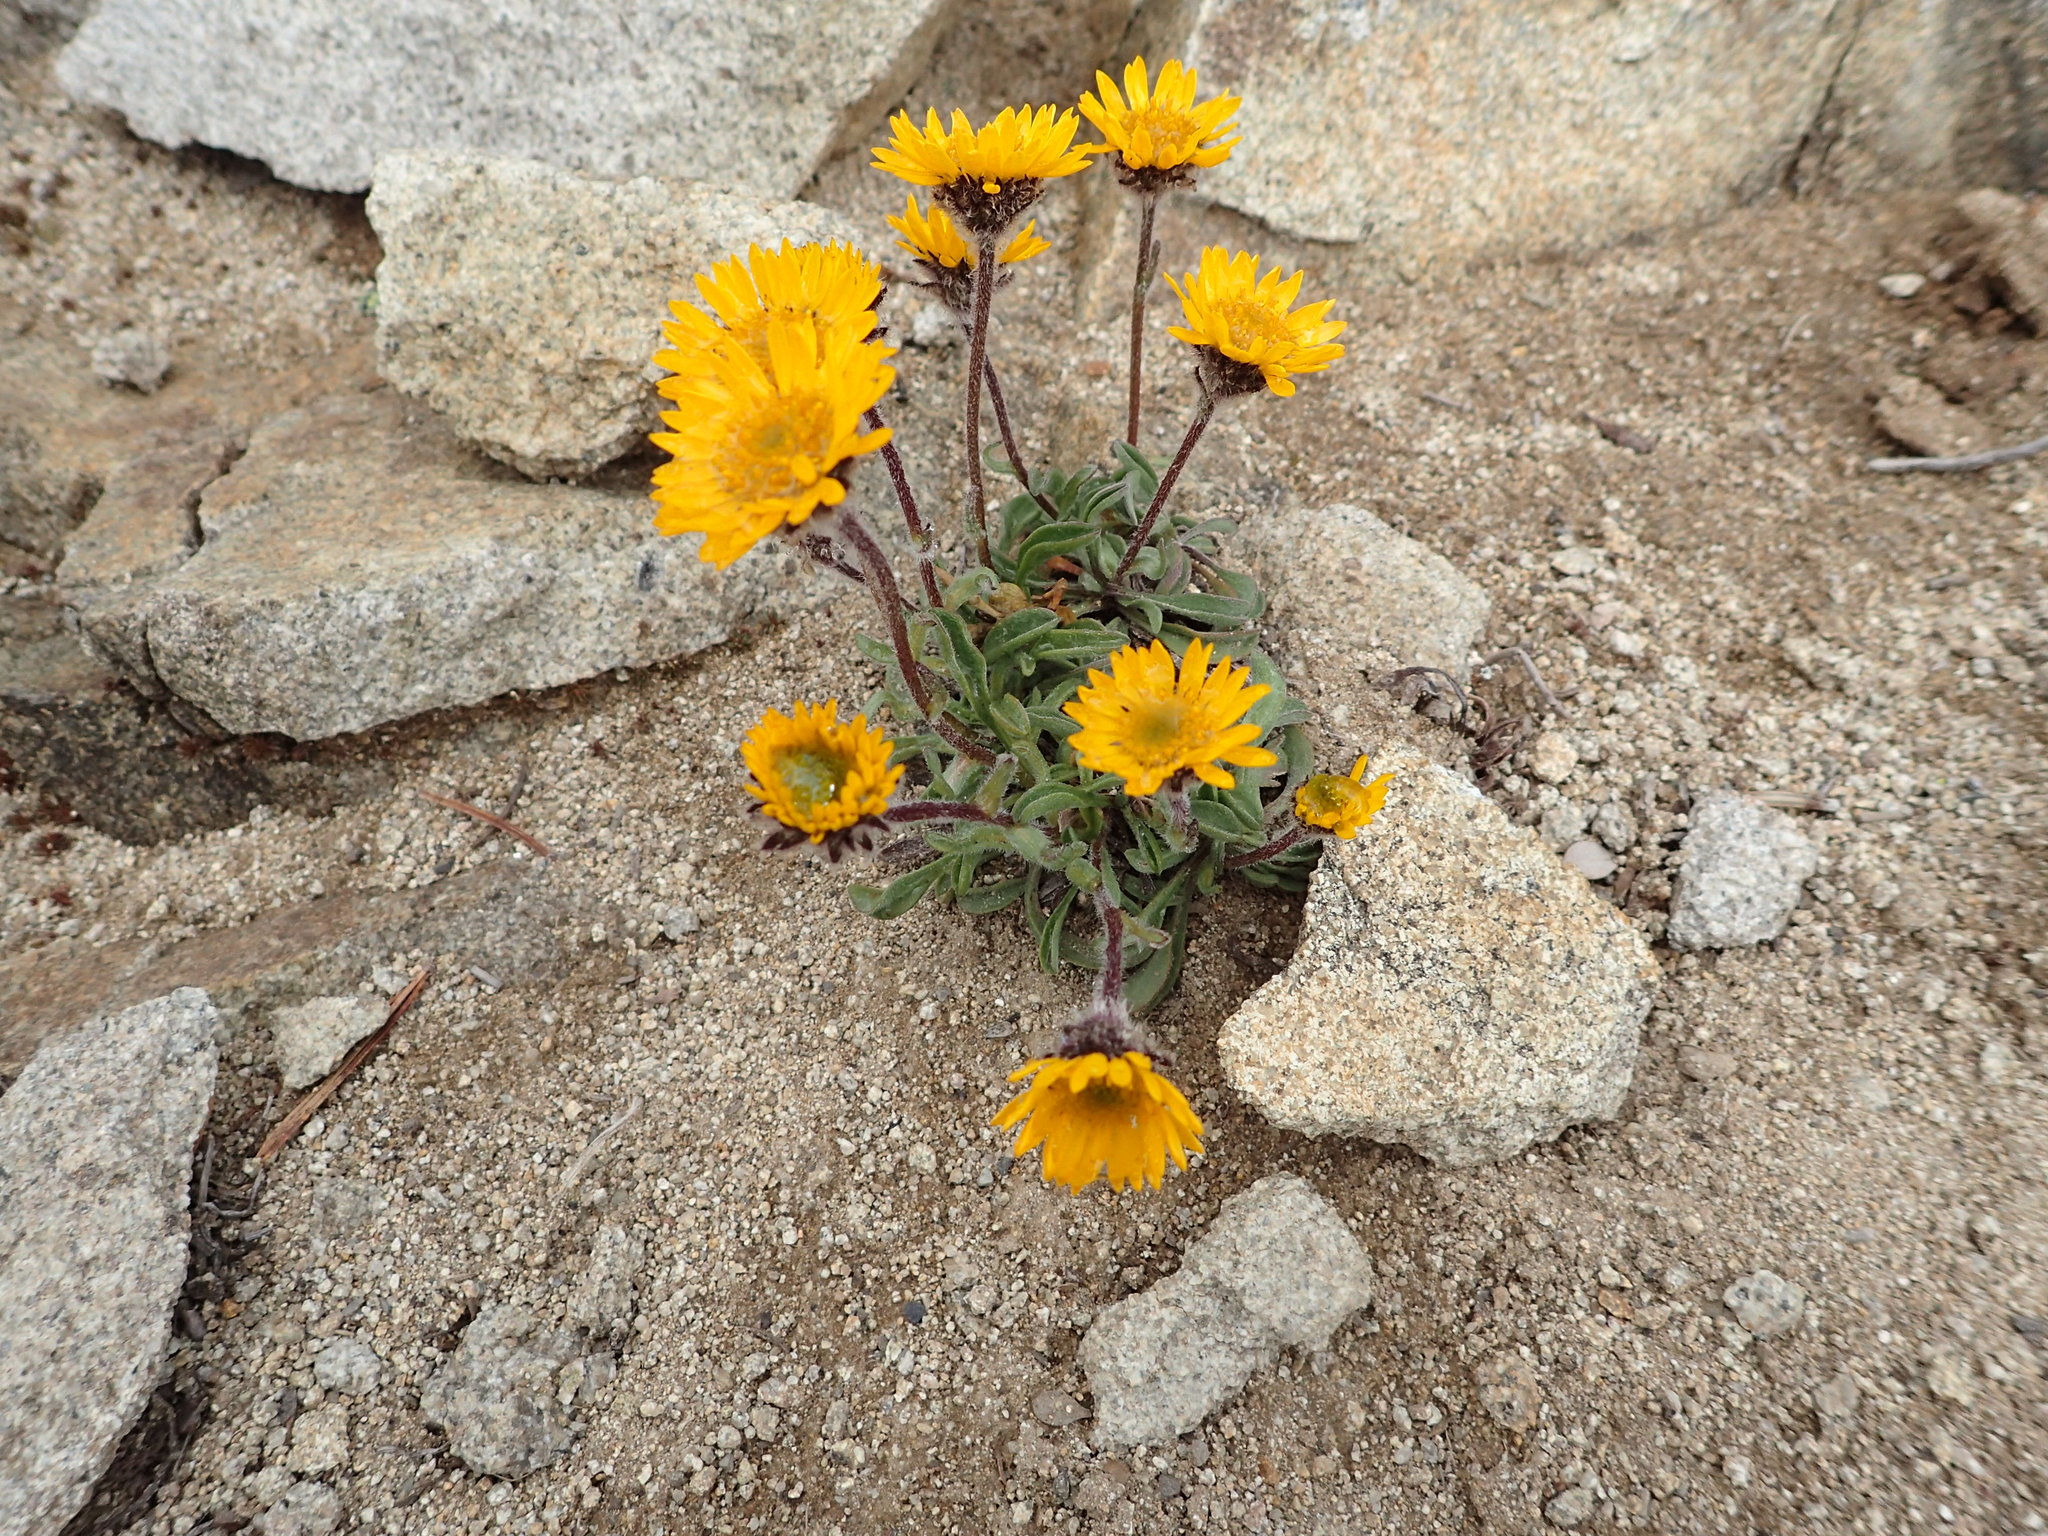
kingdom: Plantae
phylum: Tracheophyta
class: Magnoliopsida
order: Asterales
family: Asteraceae
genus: Erigeron
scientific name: Erigeron aureus
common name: Alpine yellow fleabane
